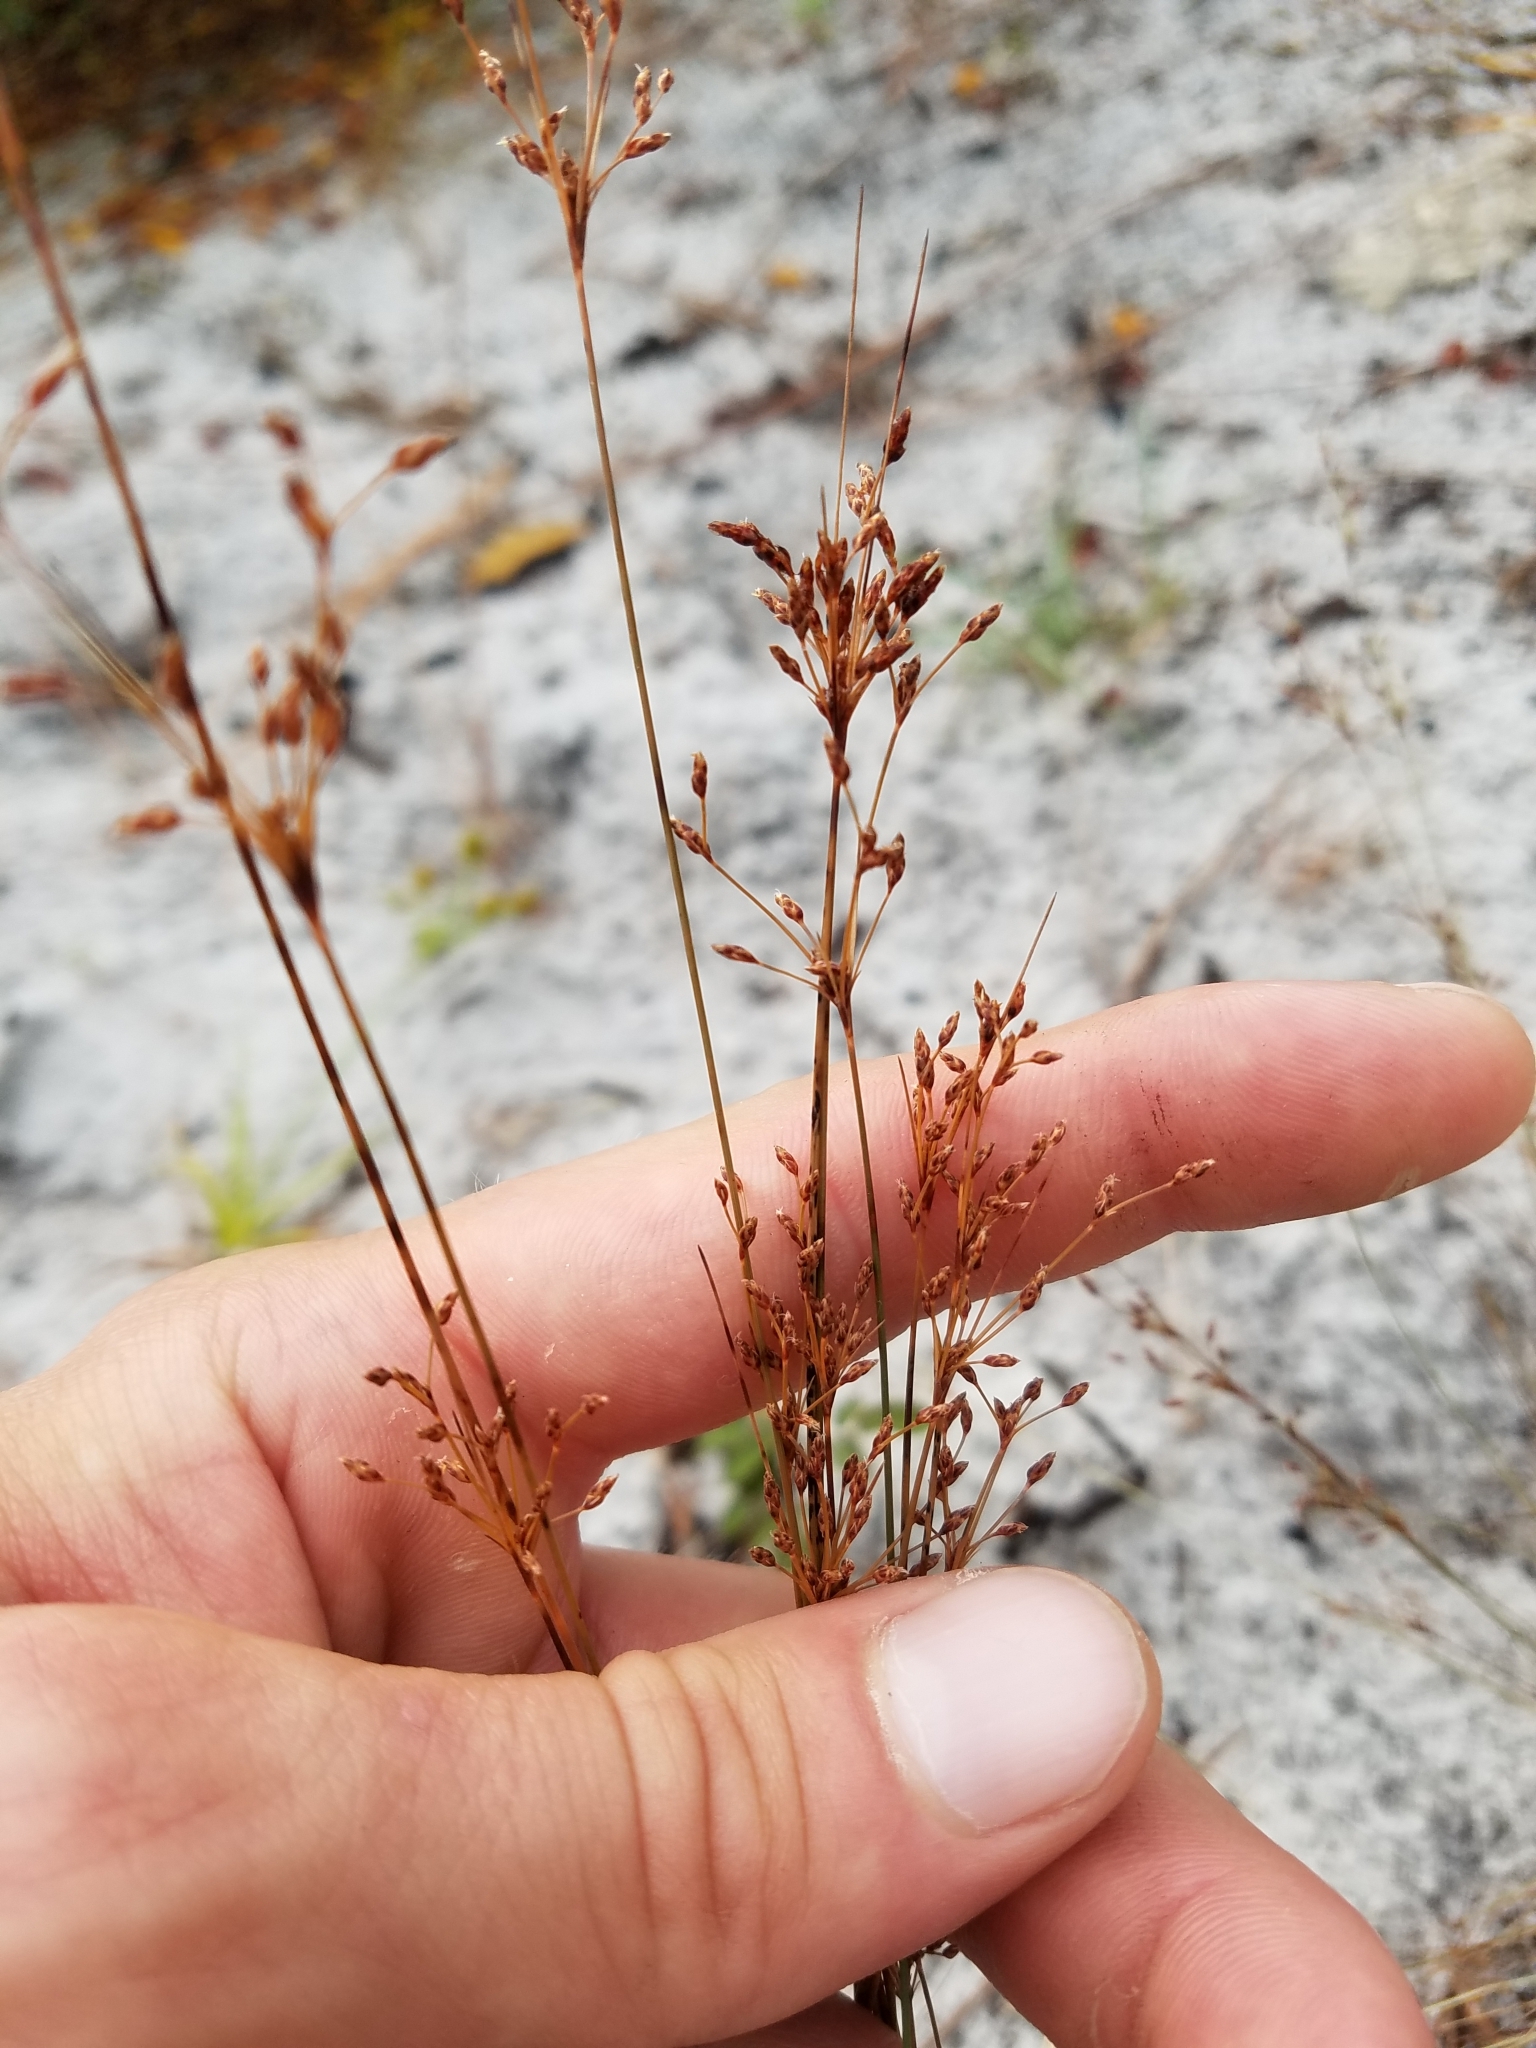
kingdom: Plantae
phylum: Tracheophyta
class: Liliopsida
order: Poales
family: Cyperaceae
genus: Bulbostylis
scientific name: Bulbostylis ciliatifolia
